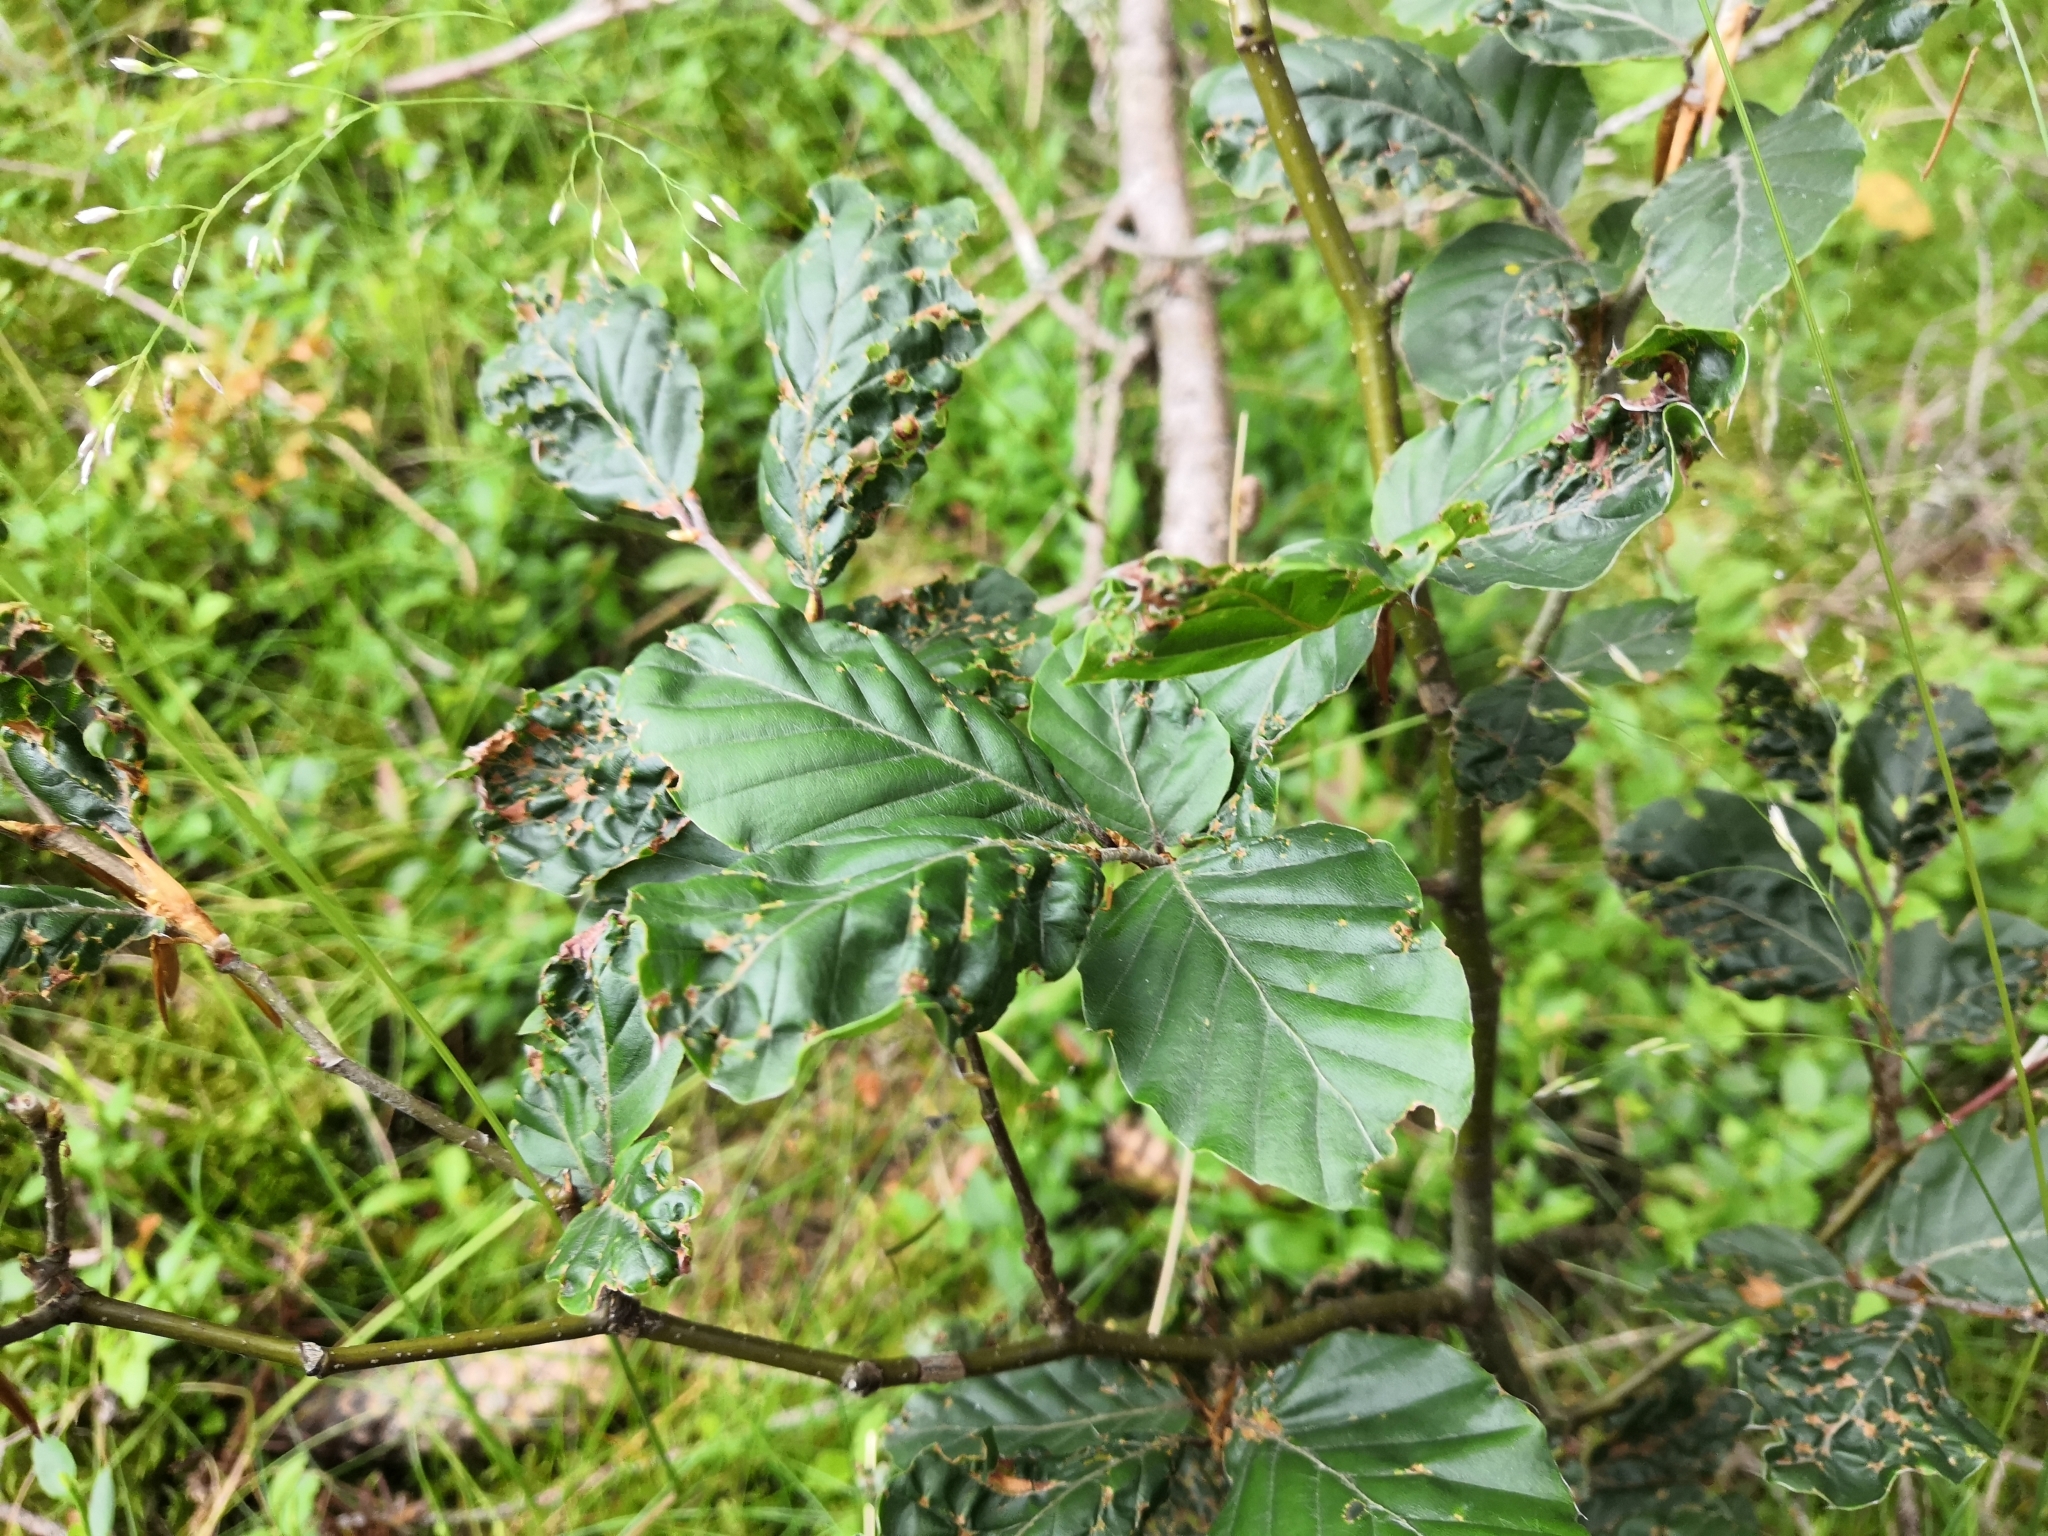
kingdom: Plantae
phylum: Tracheophyta
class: Magnoliopsida
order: Fagales
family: Fagaceae
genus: Fagus
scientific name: Fagus sylvatica
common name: Beech
